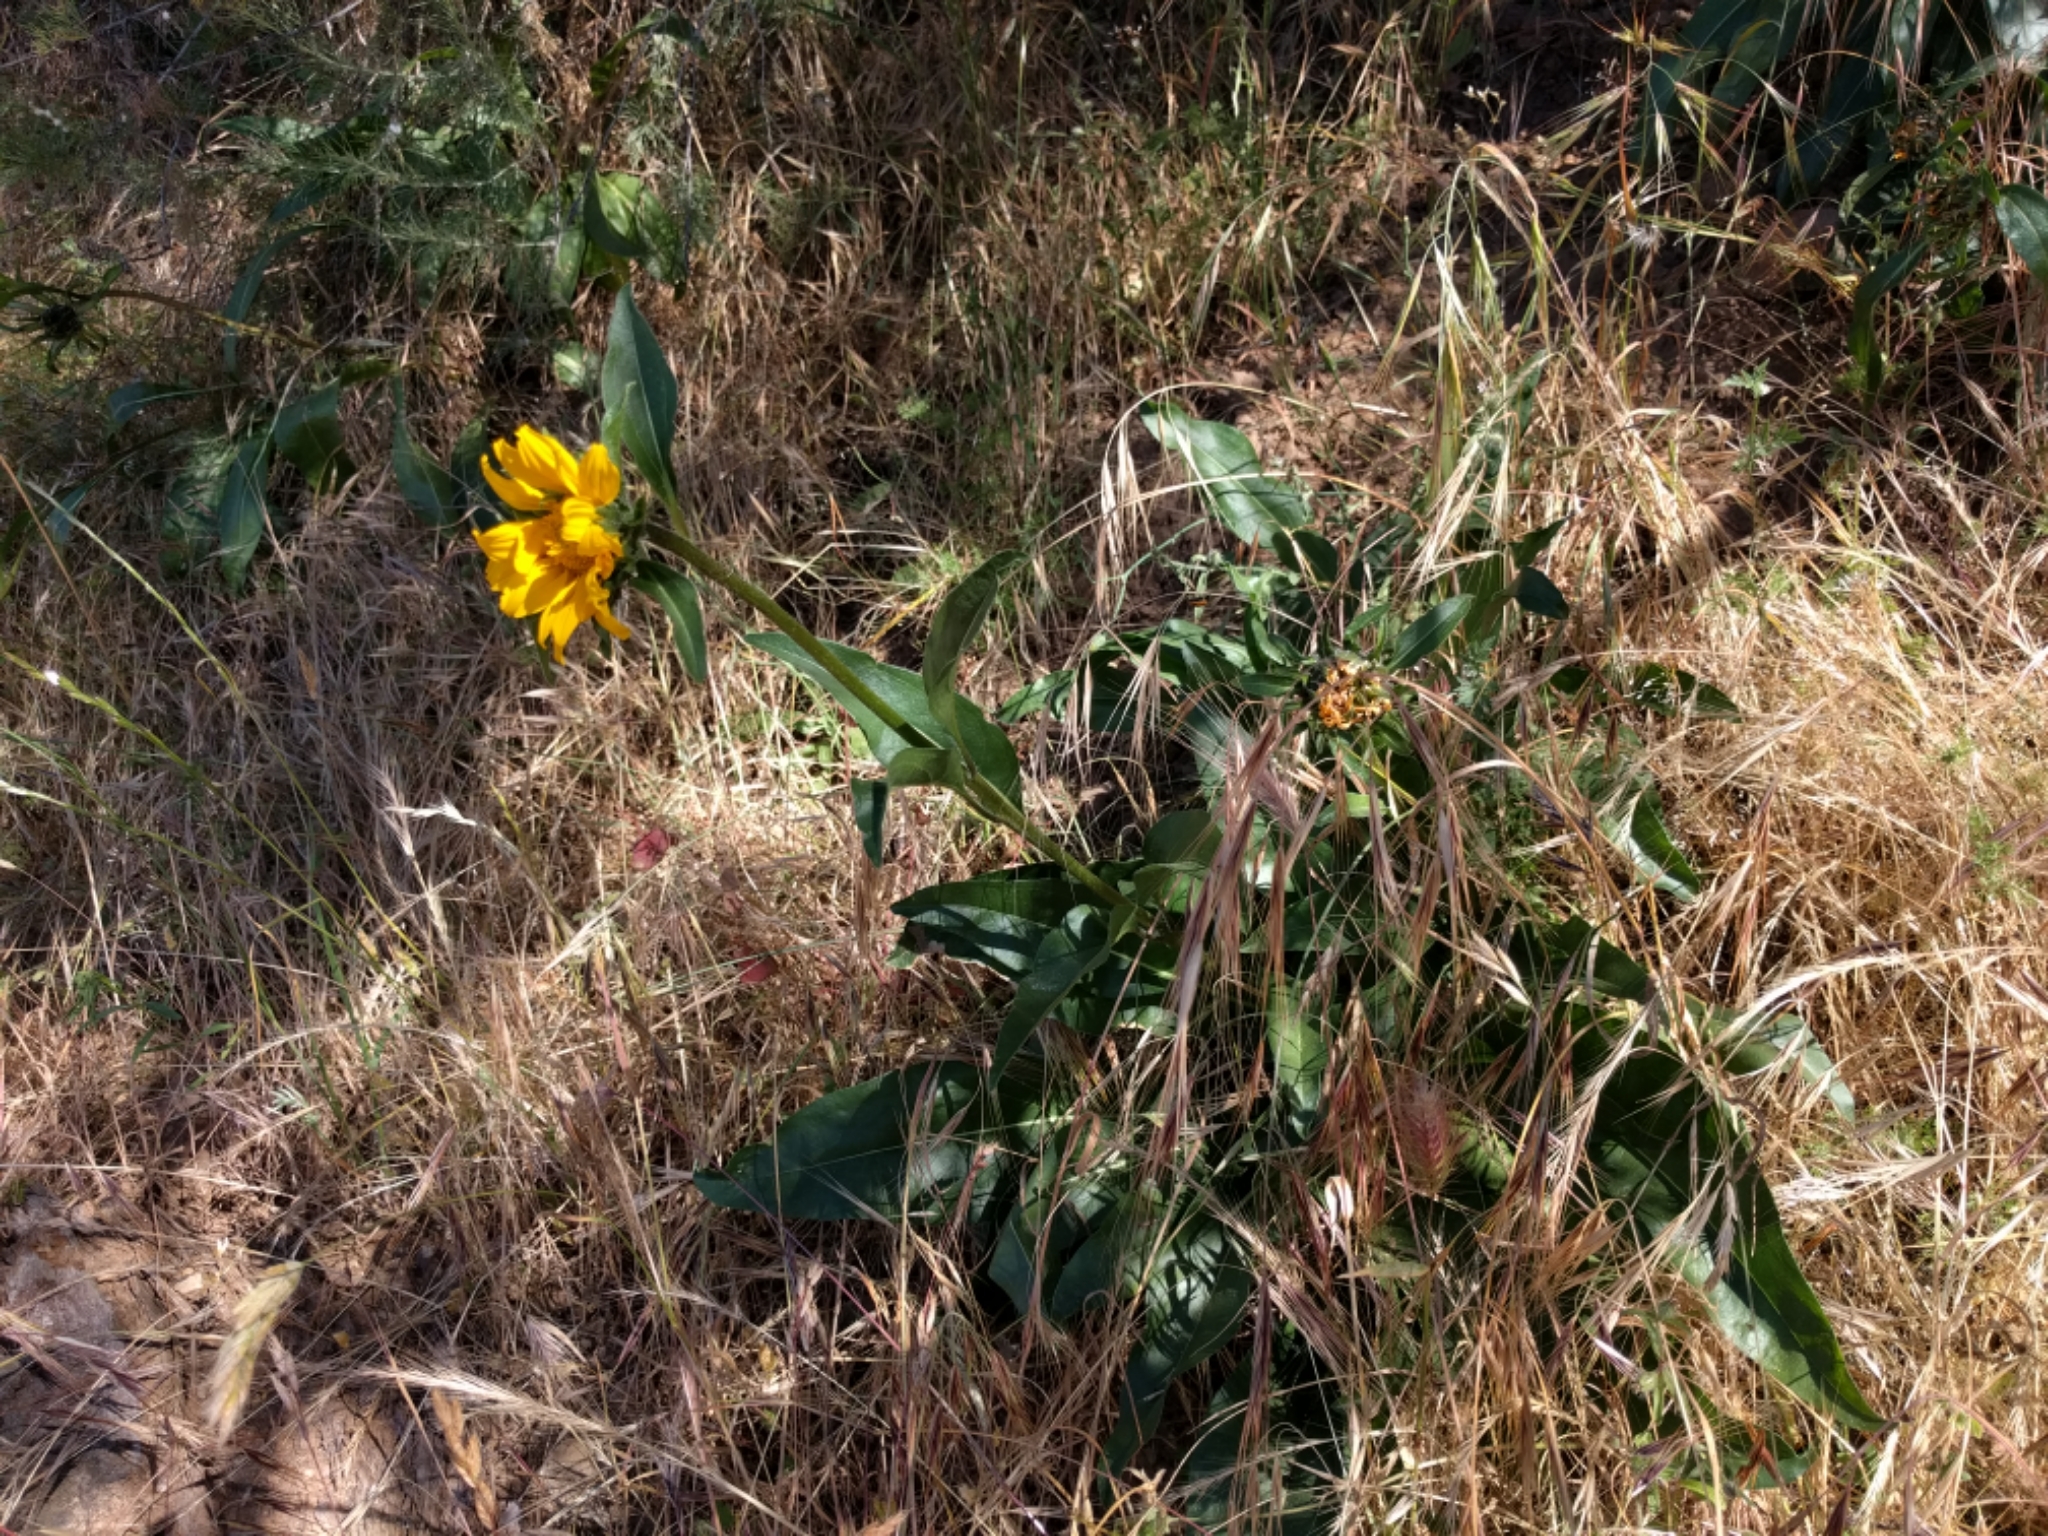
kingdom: Plantae
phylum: Tracheophyta
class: Magnoliopsida
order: Asterales
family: Asteraceae
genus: Helianthella
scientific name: Helianthella castanea
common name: Diablo helianthella
